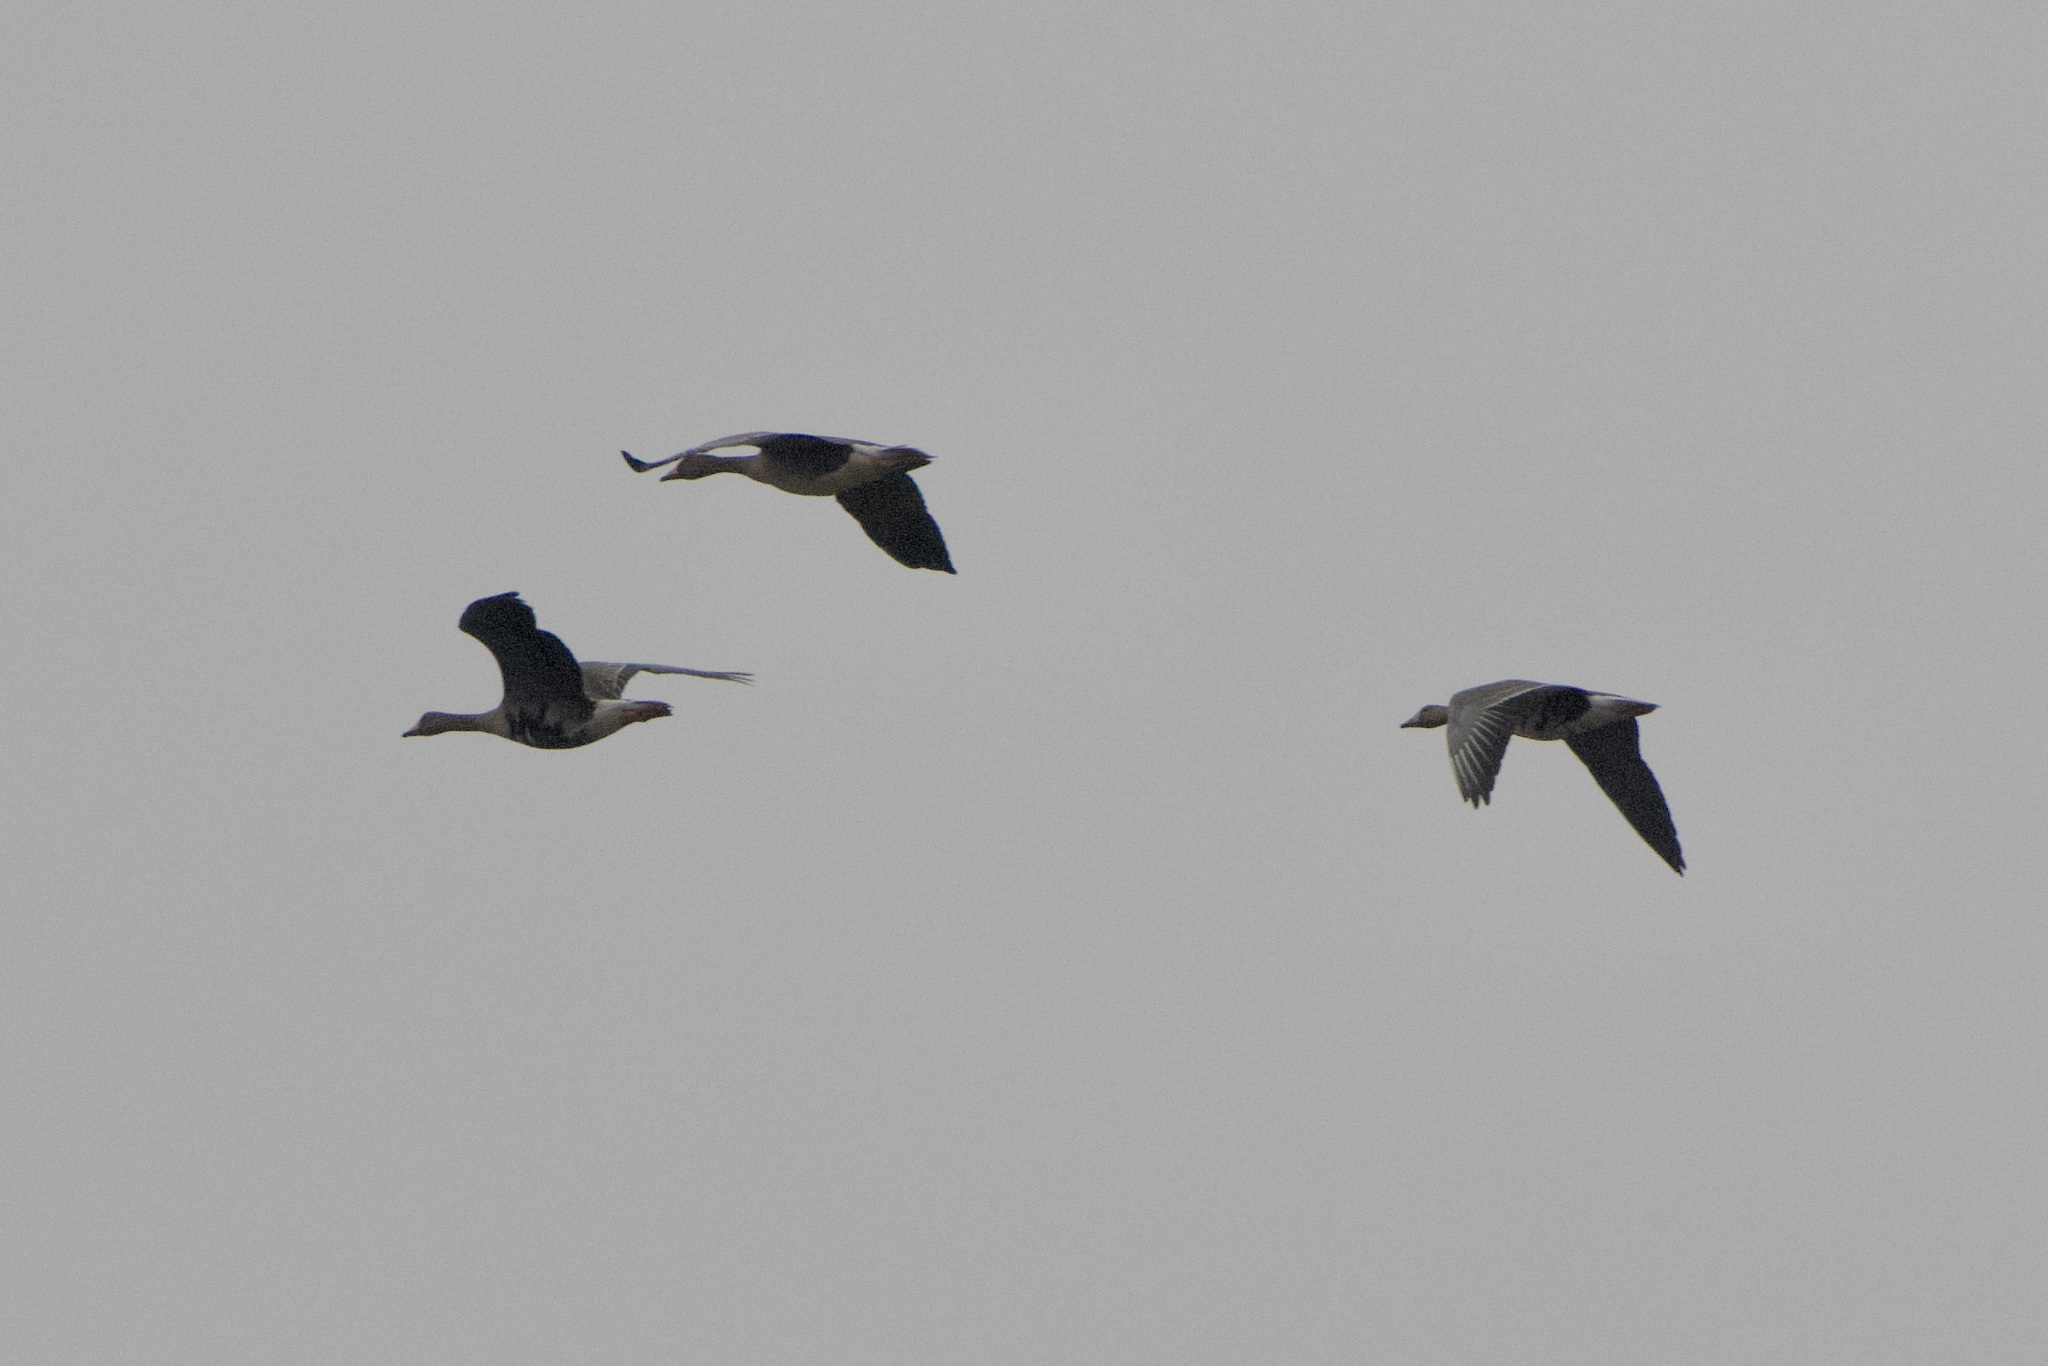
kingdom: Animalia
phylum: Chordata
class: Aves
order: Anseriformes
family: Anatidae
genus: Anser
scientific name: Anser albifrons
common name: Greater white-fronted goose
